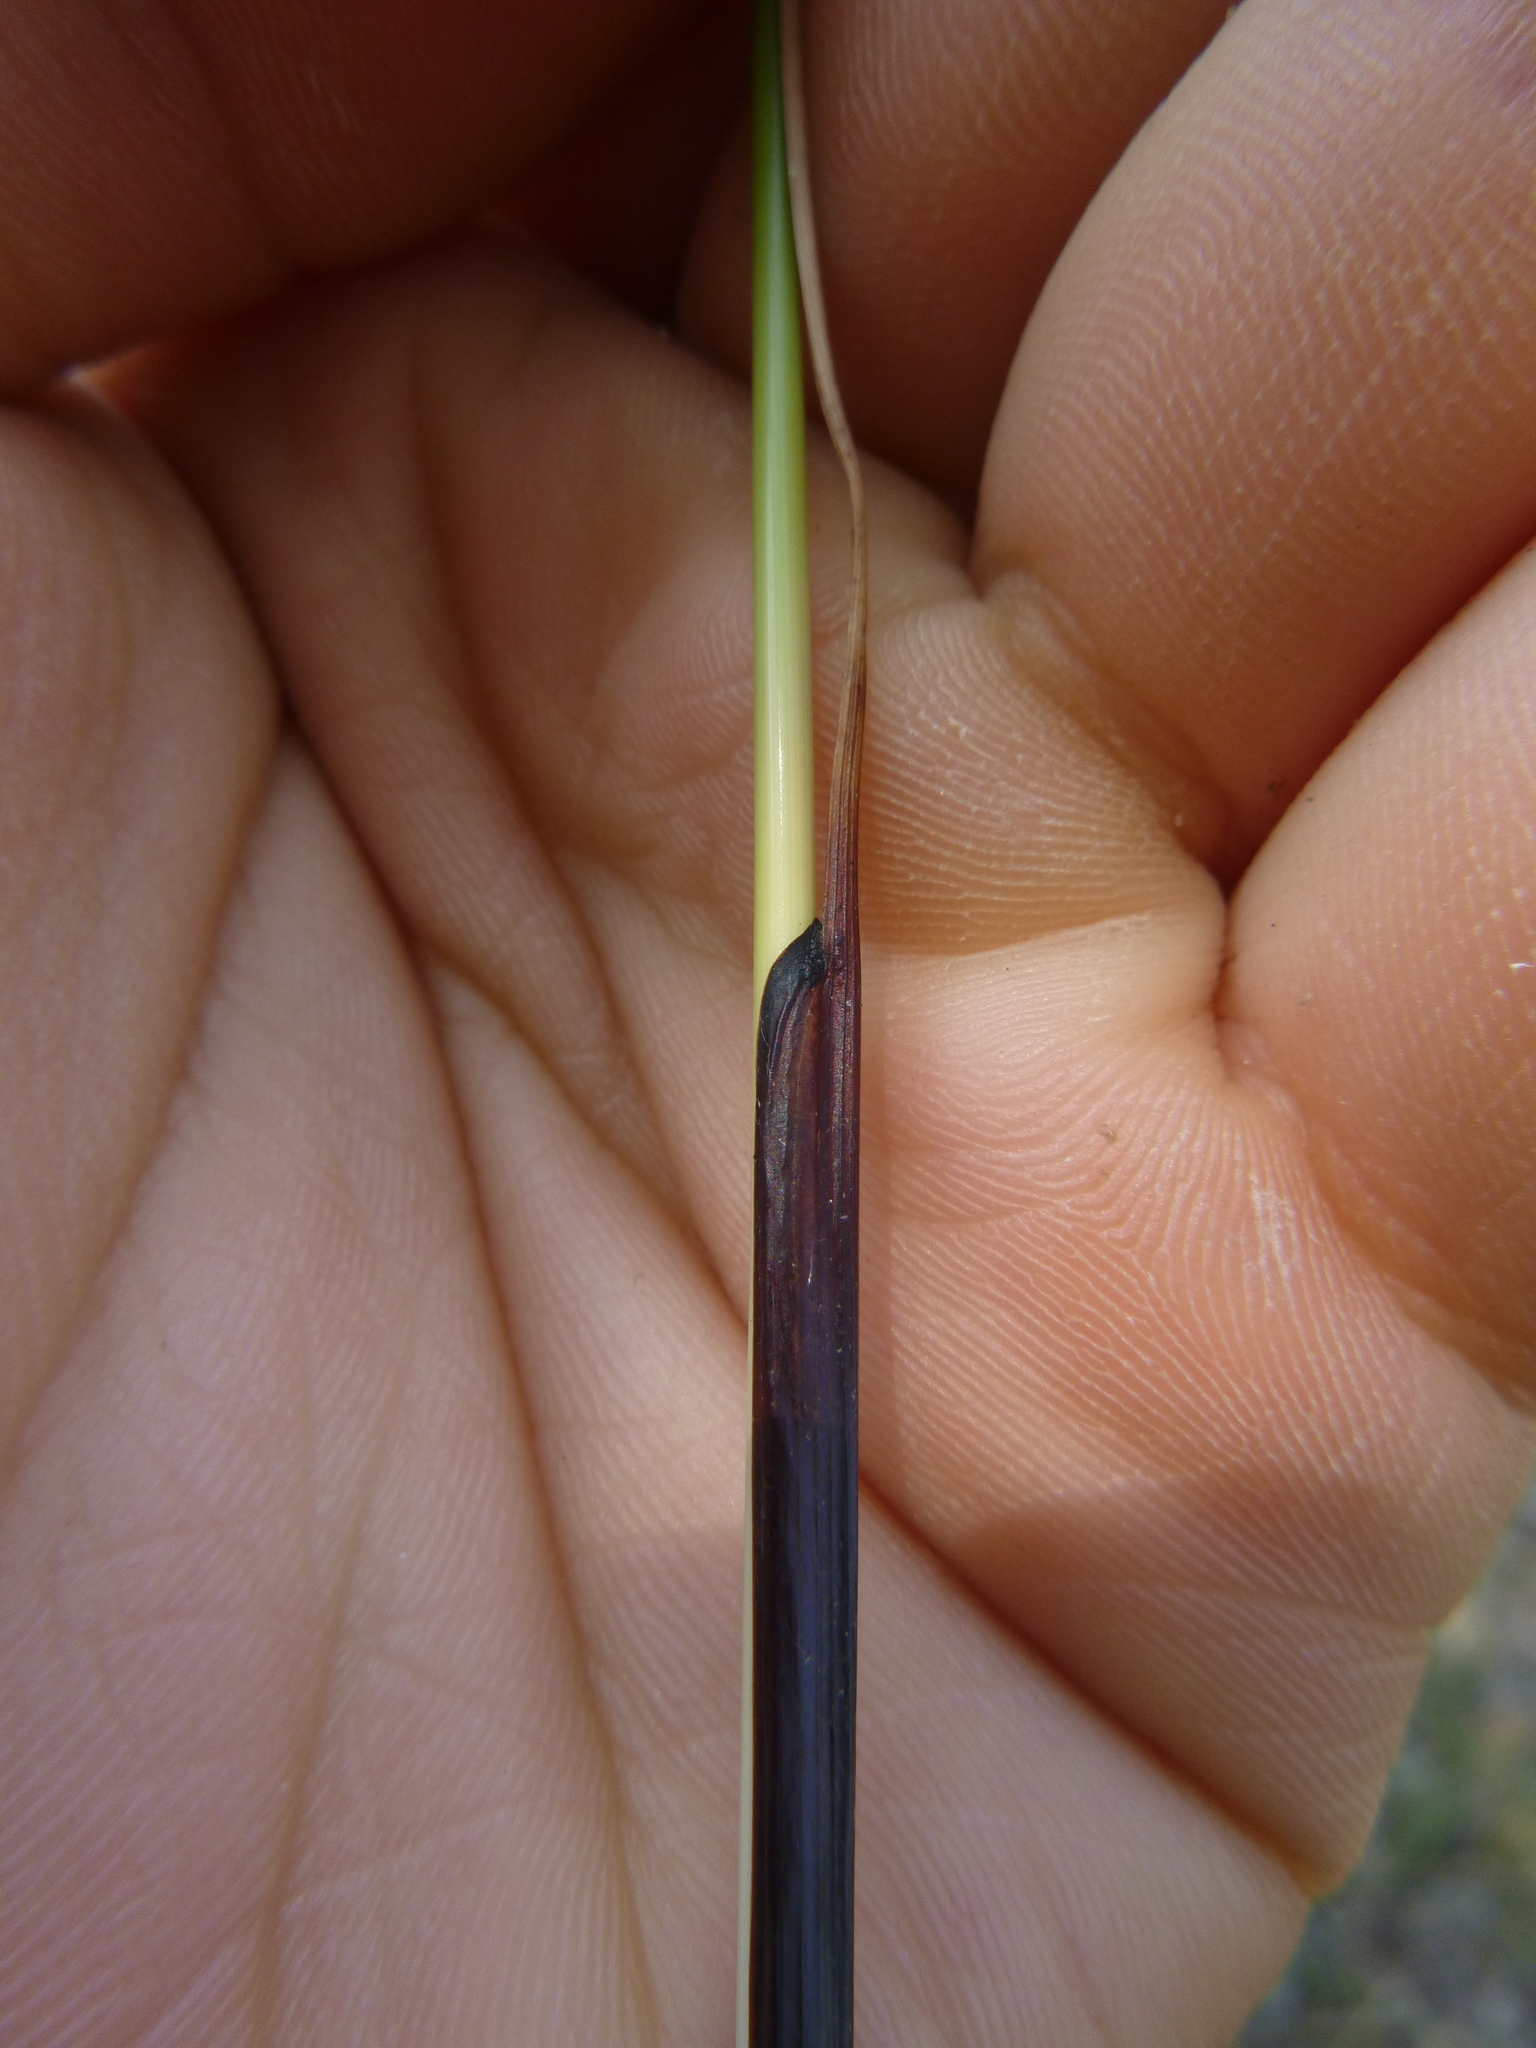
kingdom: Plantae
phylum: Tracheophyta
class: Liliopsida
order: Poales
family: Cyperaceae
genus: Schoenus
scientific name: Schoenus nigricans
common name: Black bog-rush
